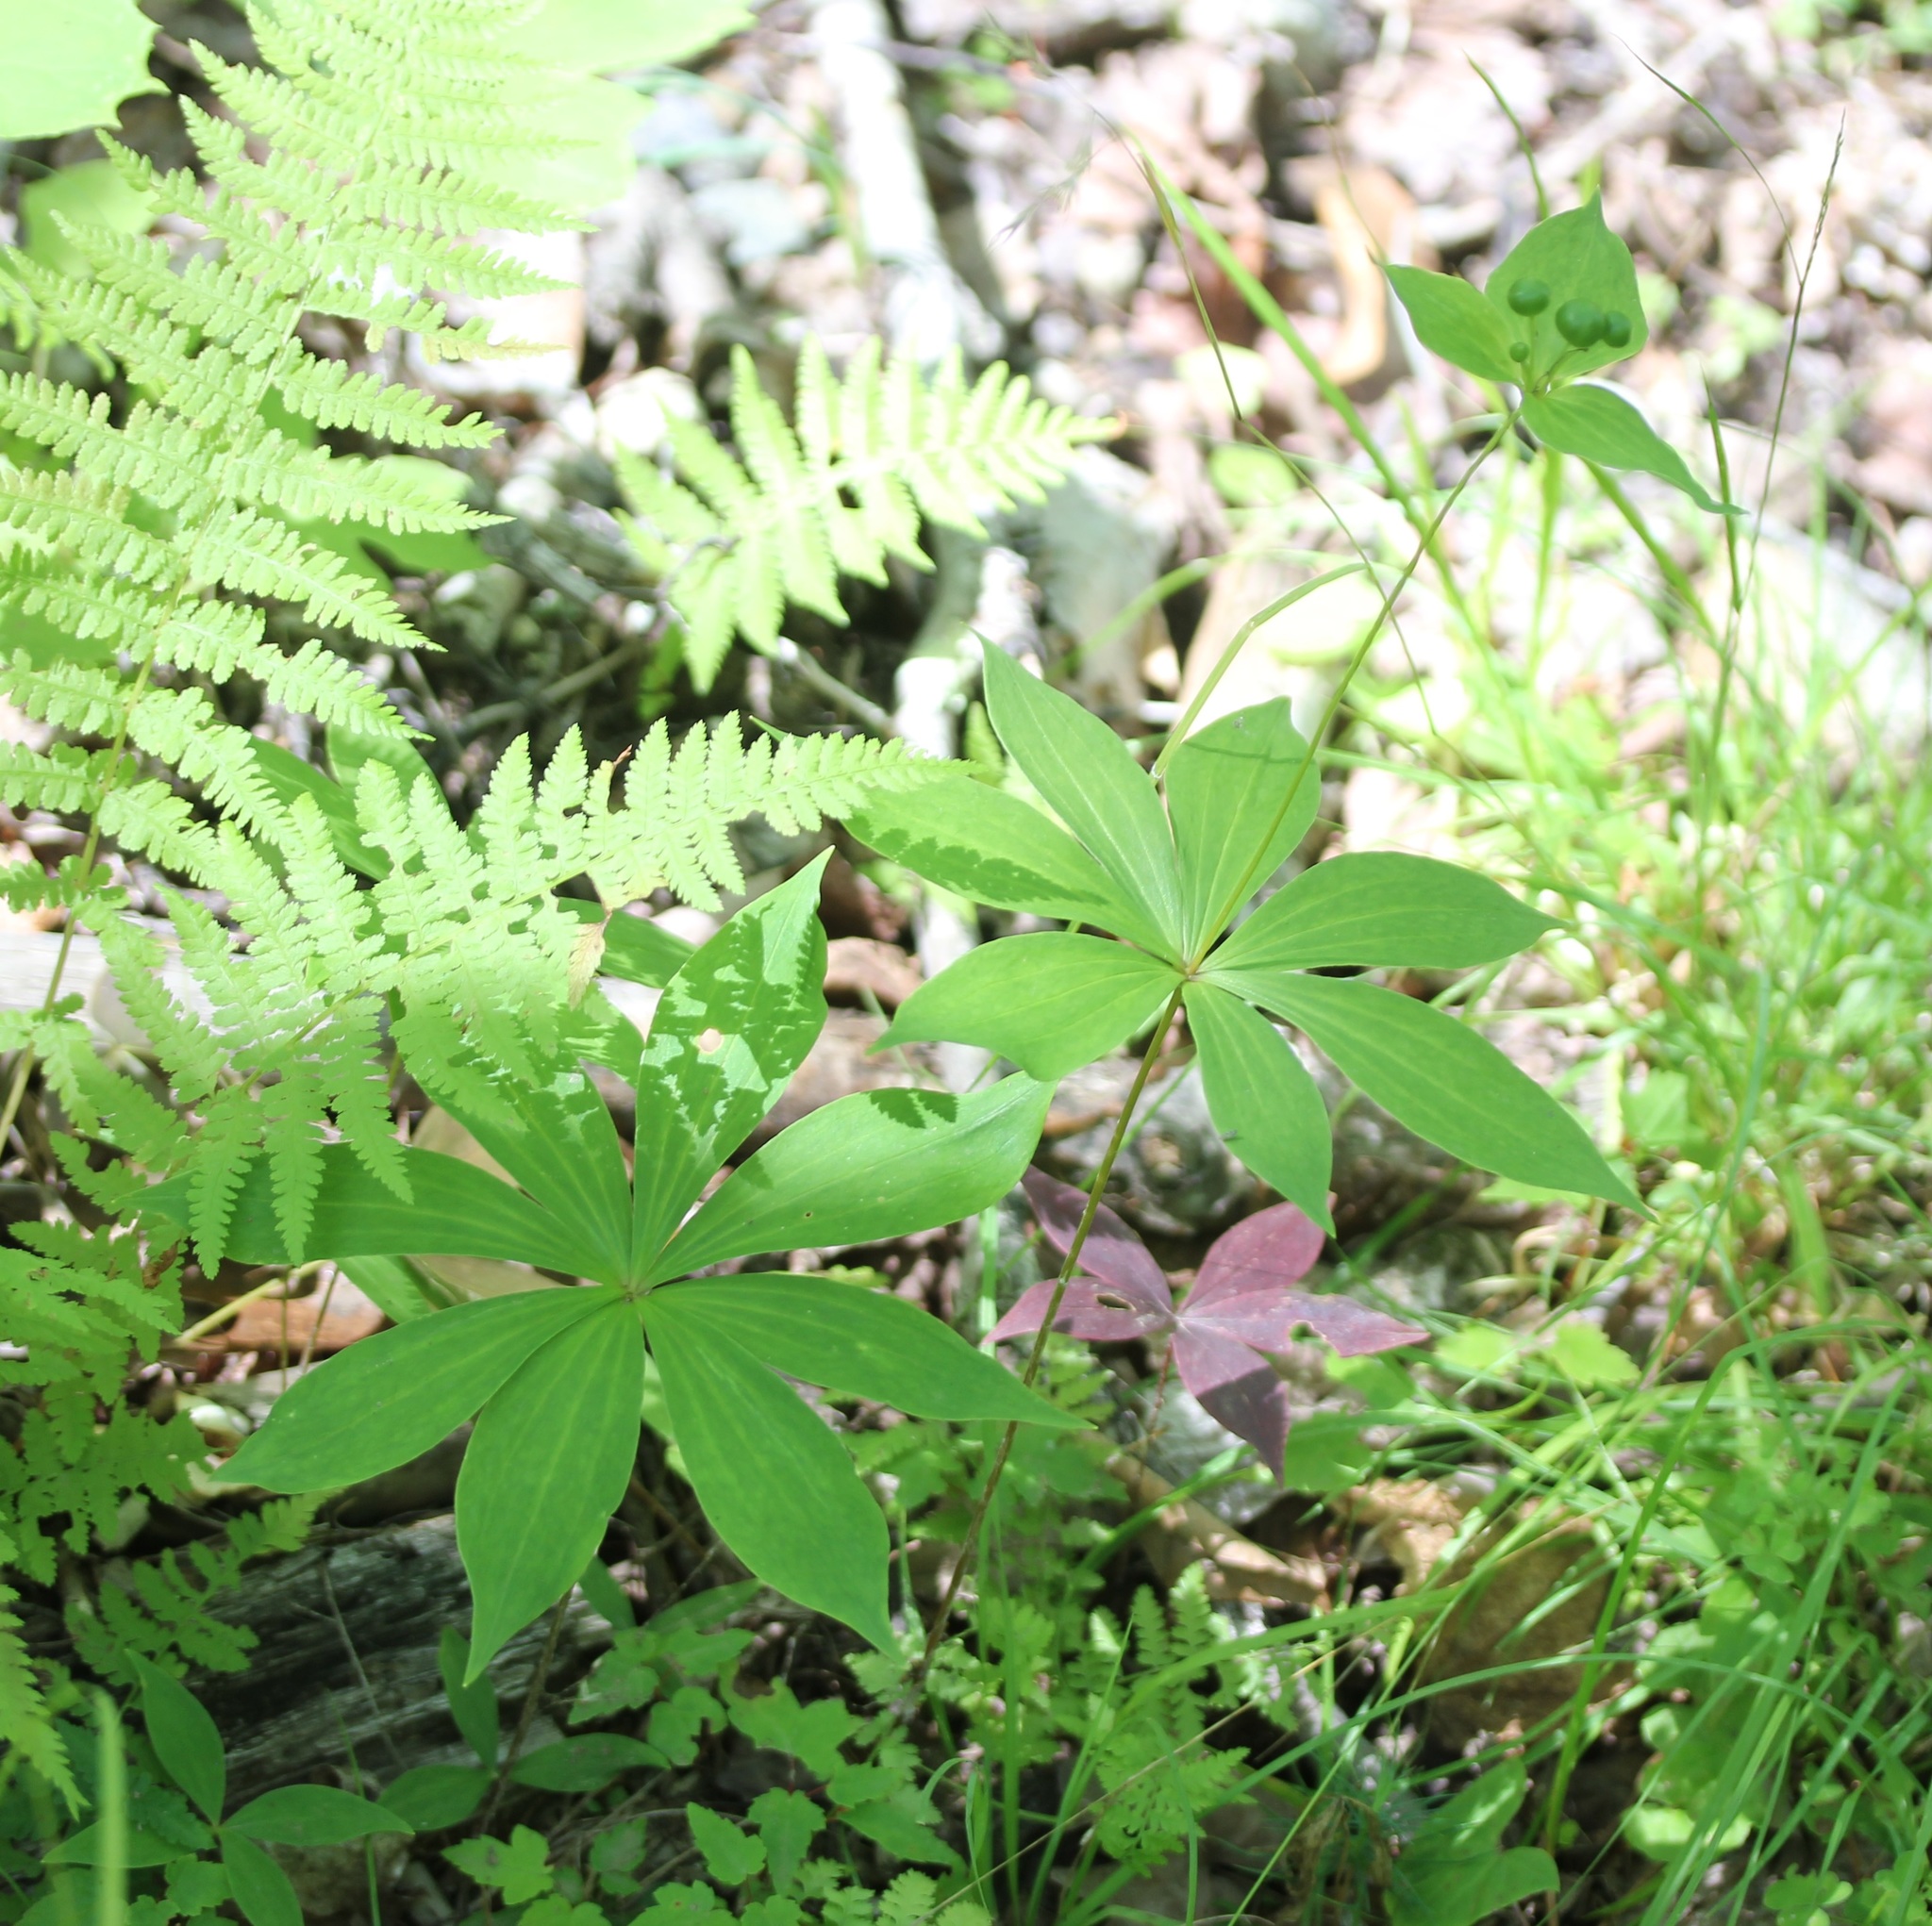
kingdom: Plantae
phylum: Tracheophyta
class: Liliopsida
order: Liliales
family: Liliaceae
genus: Medeola
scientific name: Medeola virginiana
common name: Indian cucumber-root
